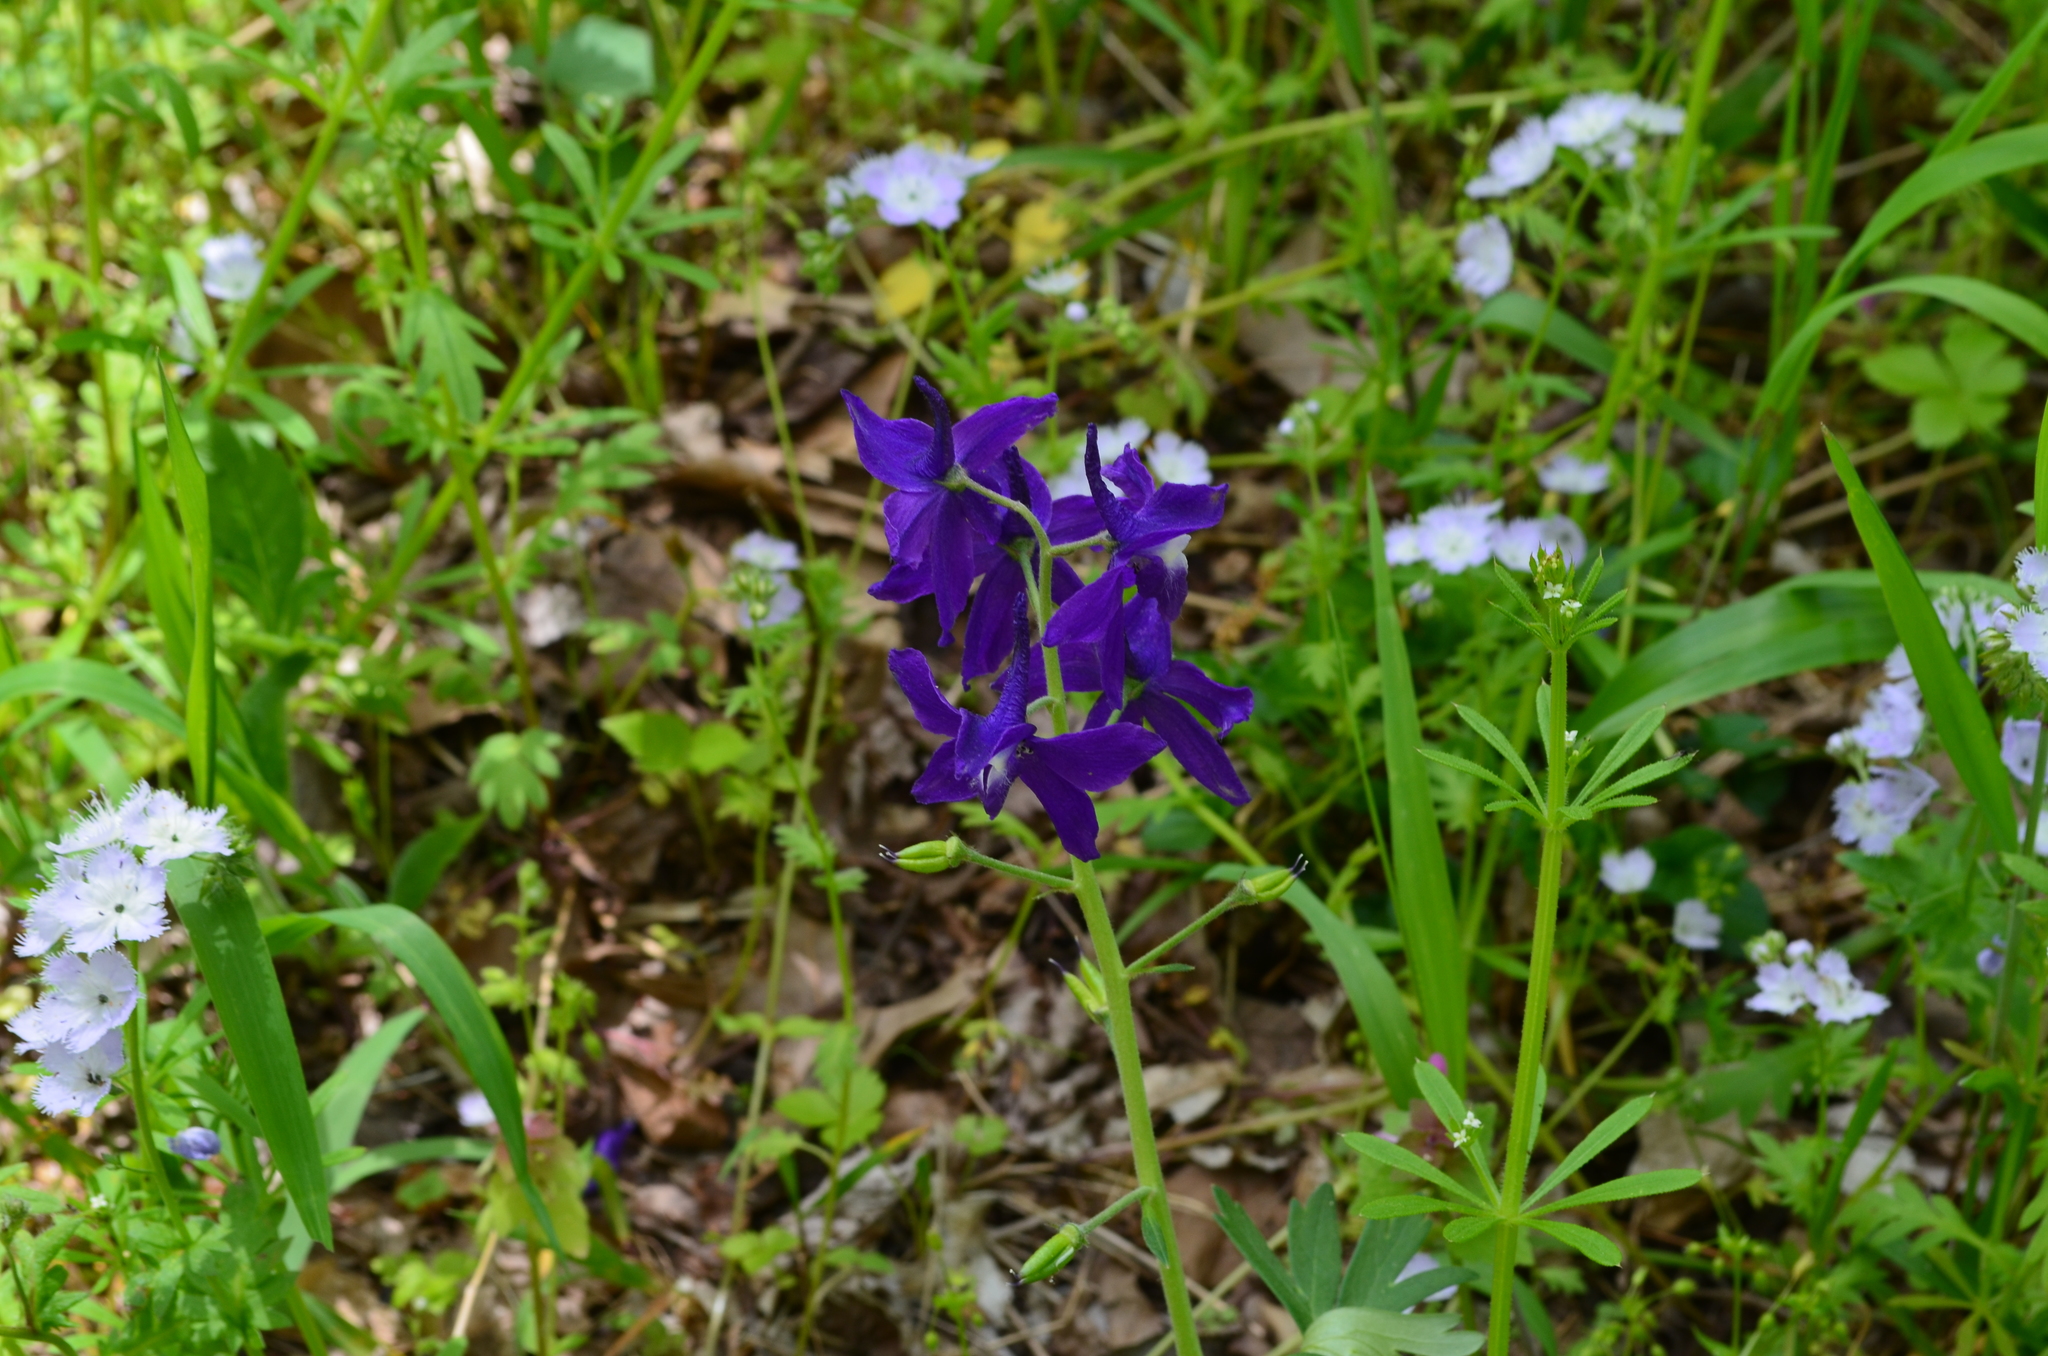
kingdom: Plantae
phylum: Tracheophyta
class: Magnoliopsida
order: Ranunculales
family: Ranunculaceae
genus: Delphinium
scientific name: Delphinium tricorne
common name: Dwarf larkspur
